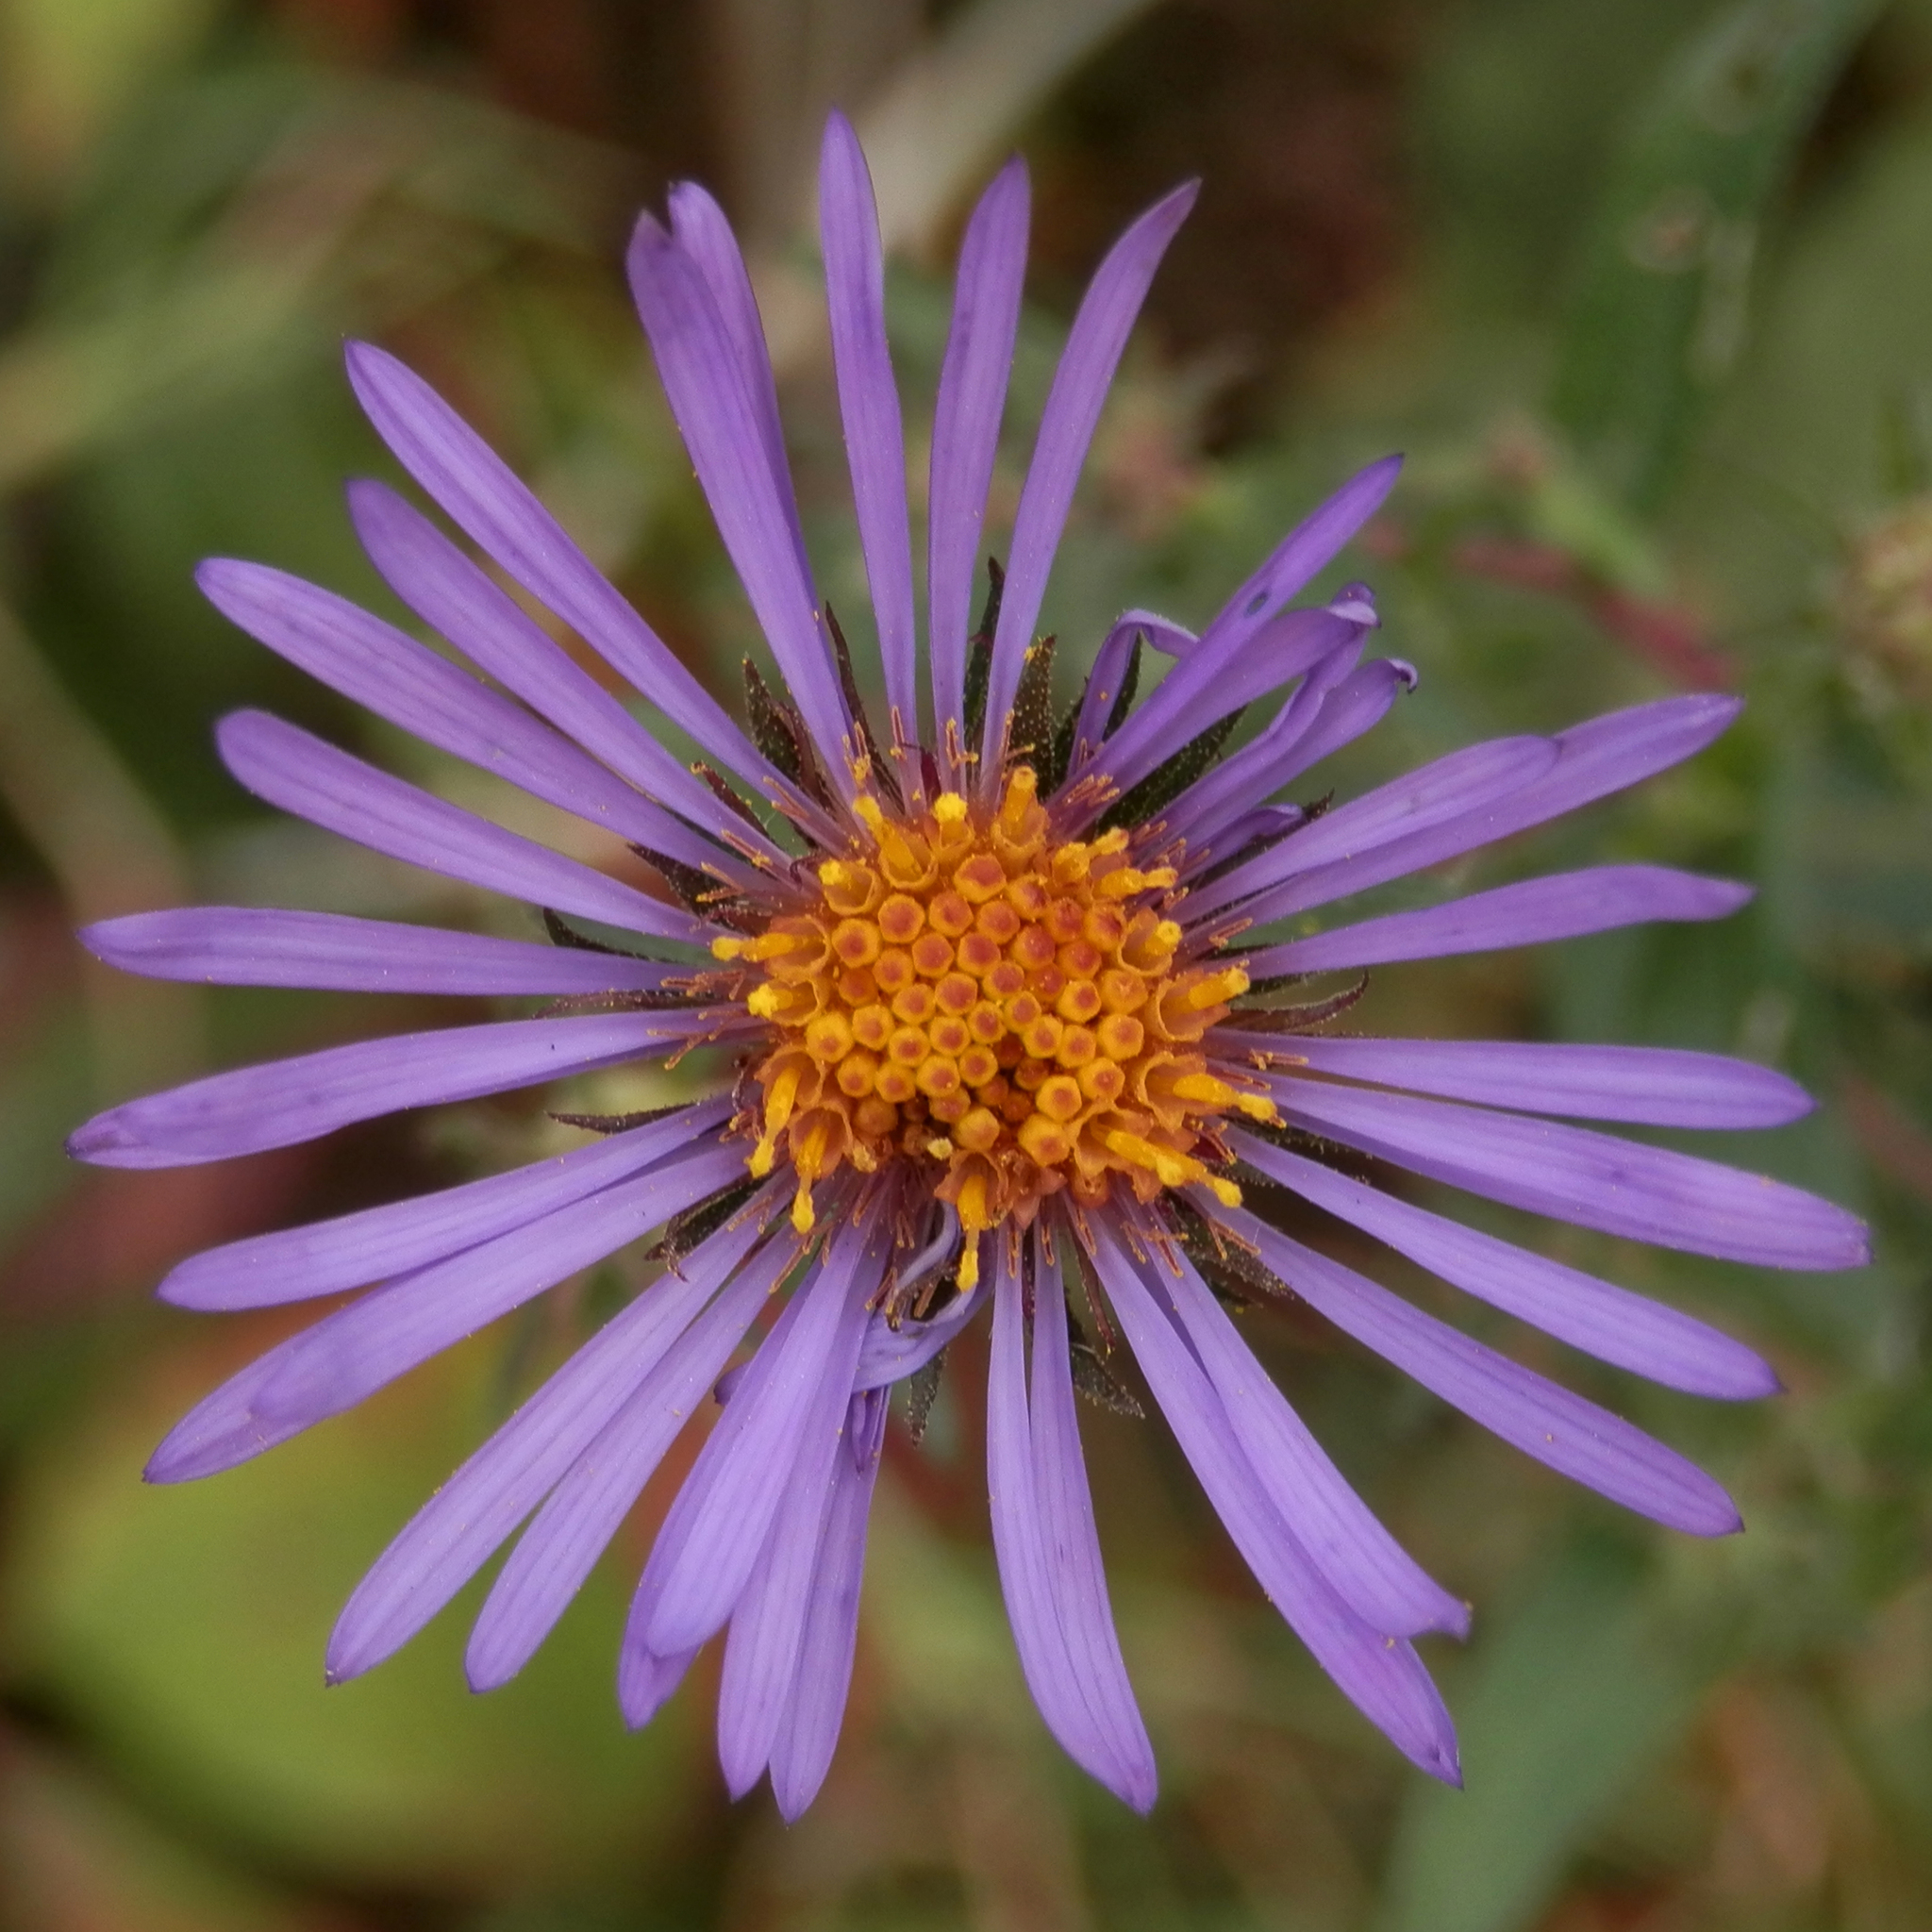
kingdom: Plantae
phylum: Tracheophyta
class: Magnoliopsida
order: Asterales
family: Asteraceae
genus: Symphyotrichum
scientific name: Symphyotrichum novae-angliae
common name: Michaelmas daisy
